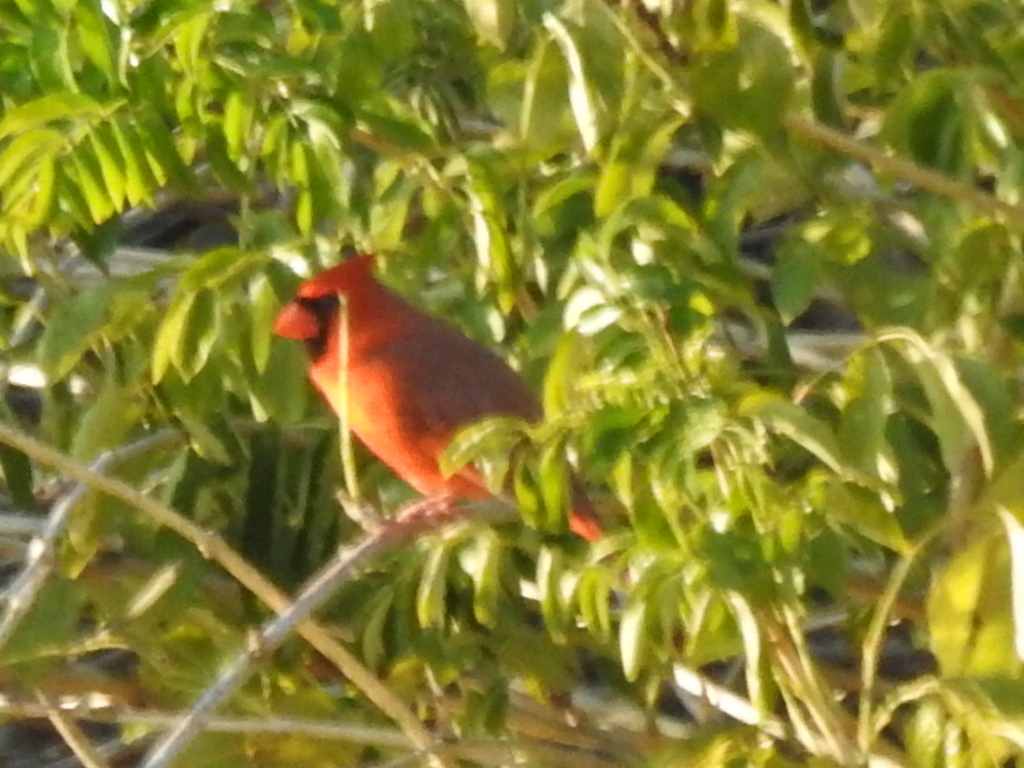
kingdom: Animalia
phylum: Chordata
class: Aves
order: Passeriformes
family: Cardinalidae
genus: Cardinalis
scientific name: Cardinalis cardinalis
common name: Northern cardinal
